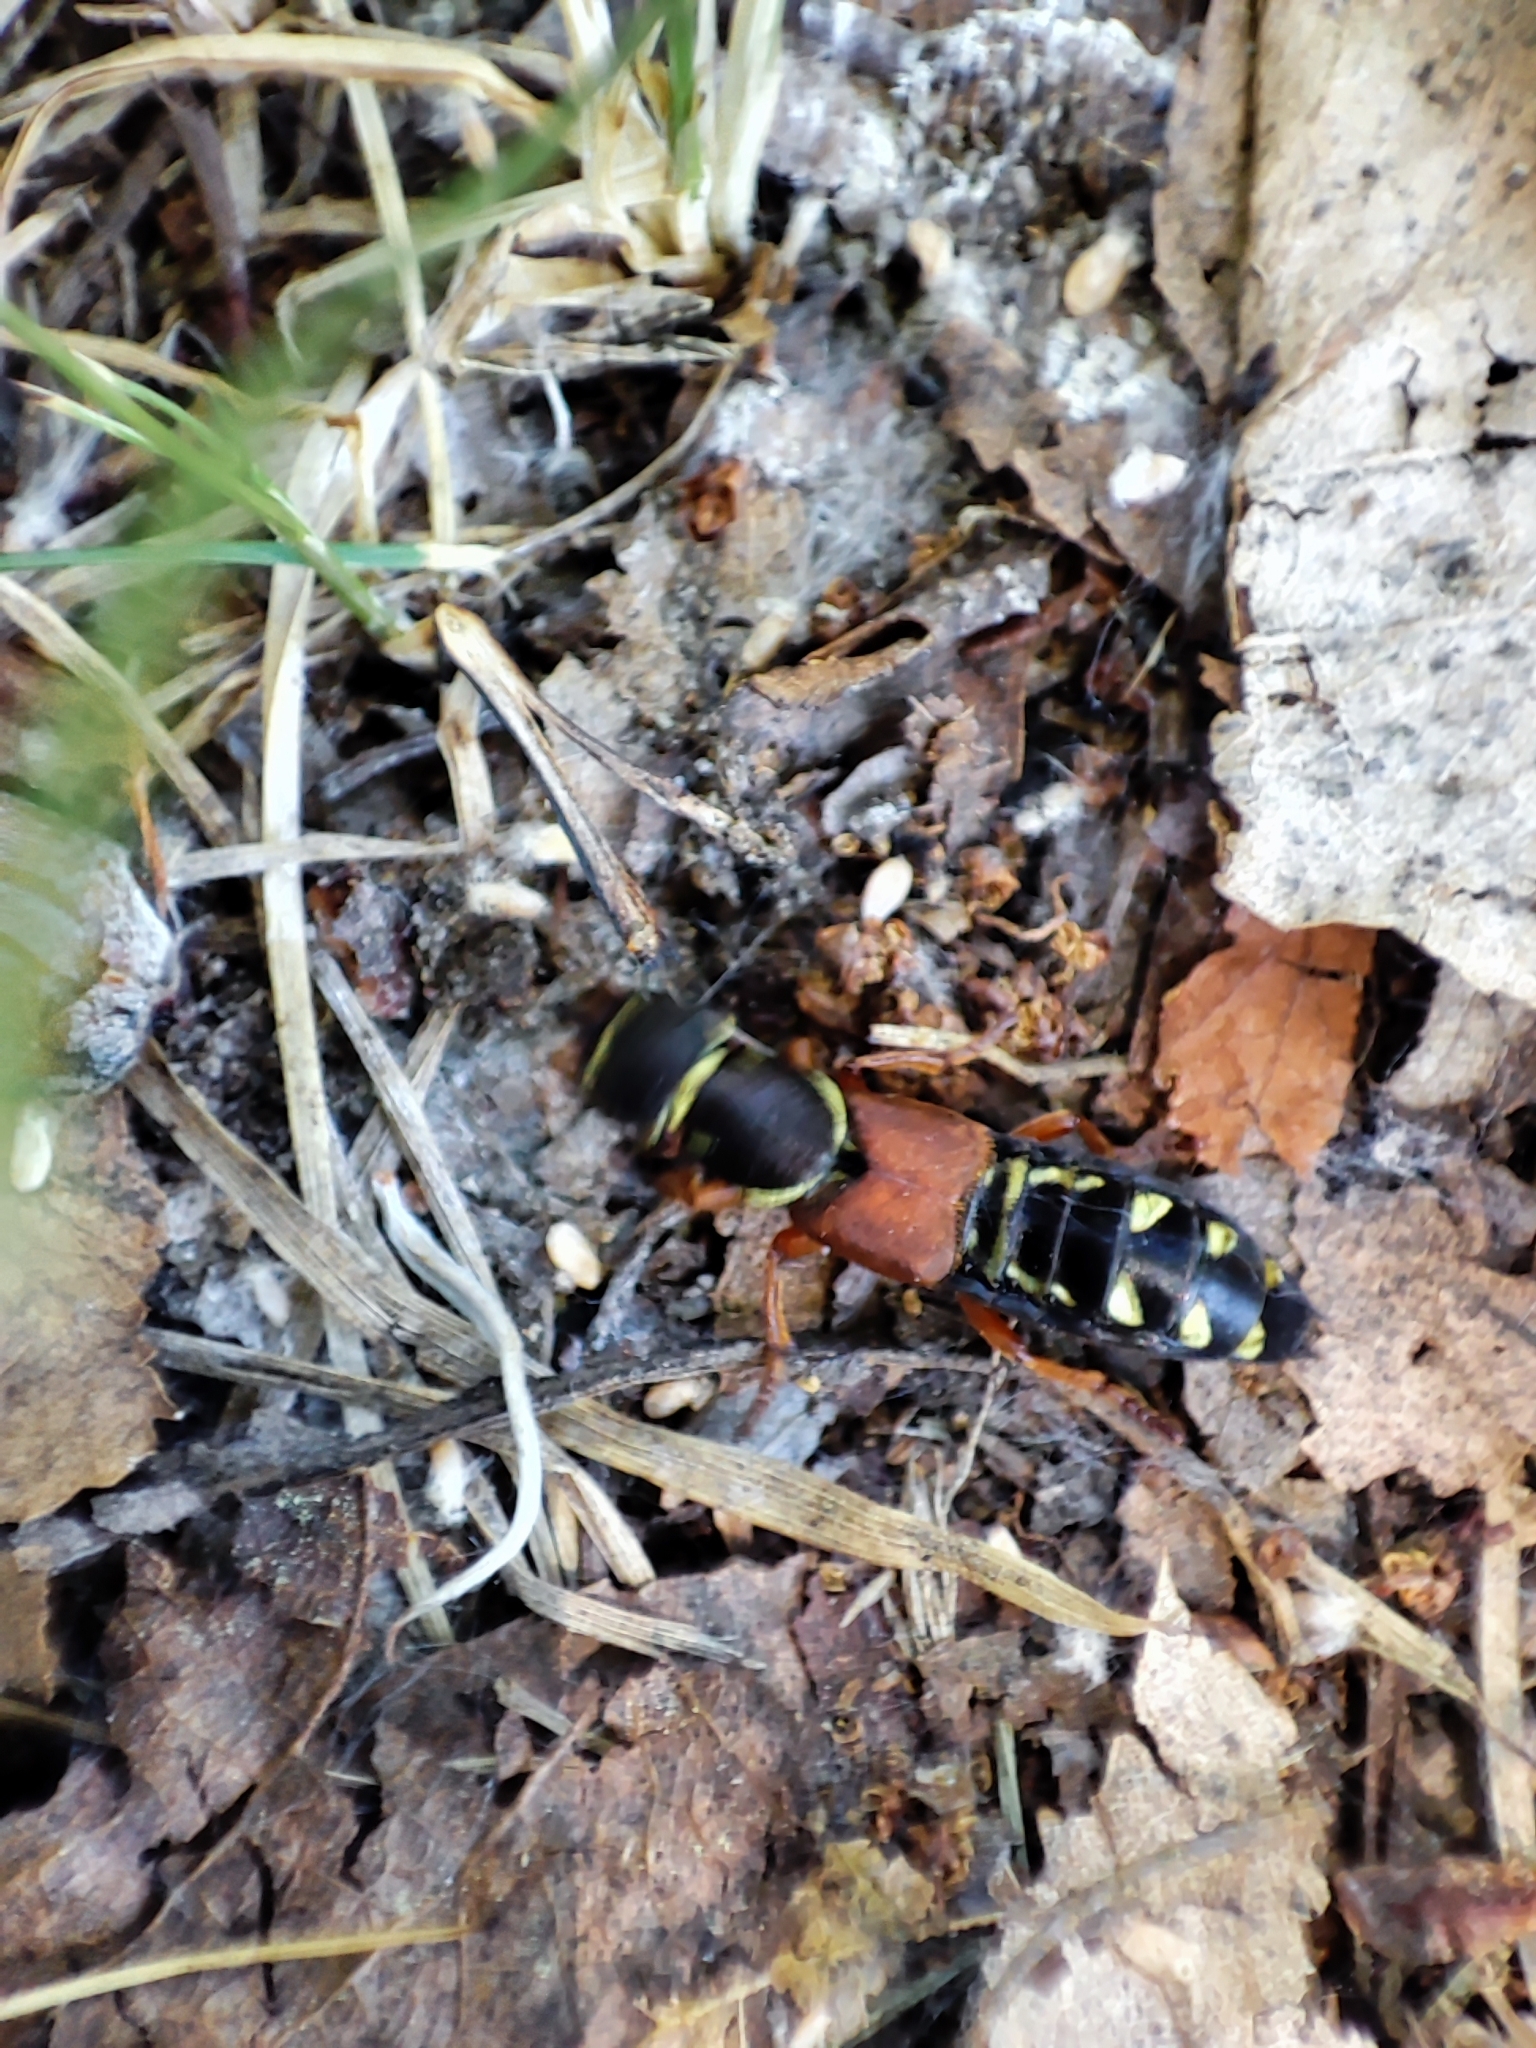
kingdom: Animalia
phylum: Arthropoda
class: Insecta
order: Coleoptera
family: Staphylinidae
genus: Staphylinus
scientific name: Staphylinus caesareus
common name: Staph beetle
